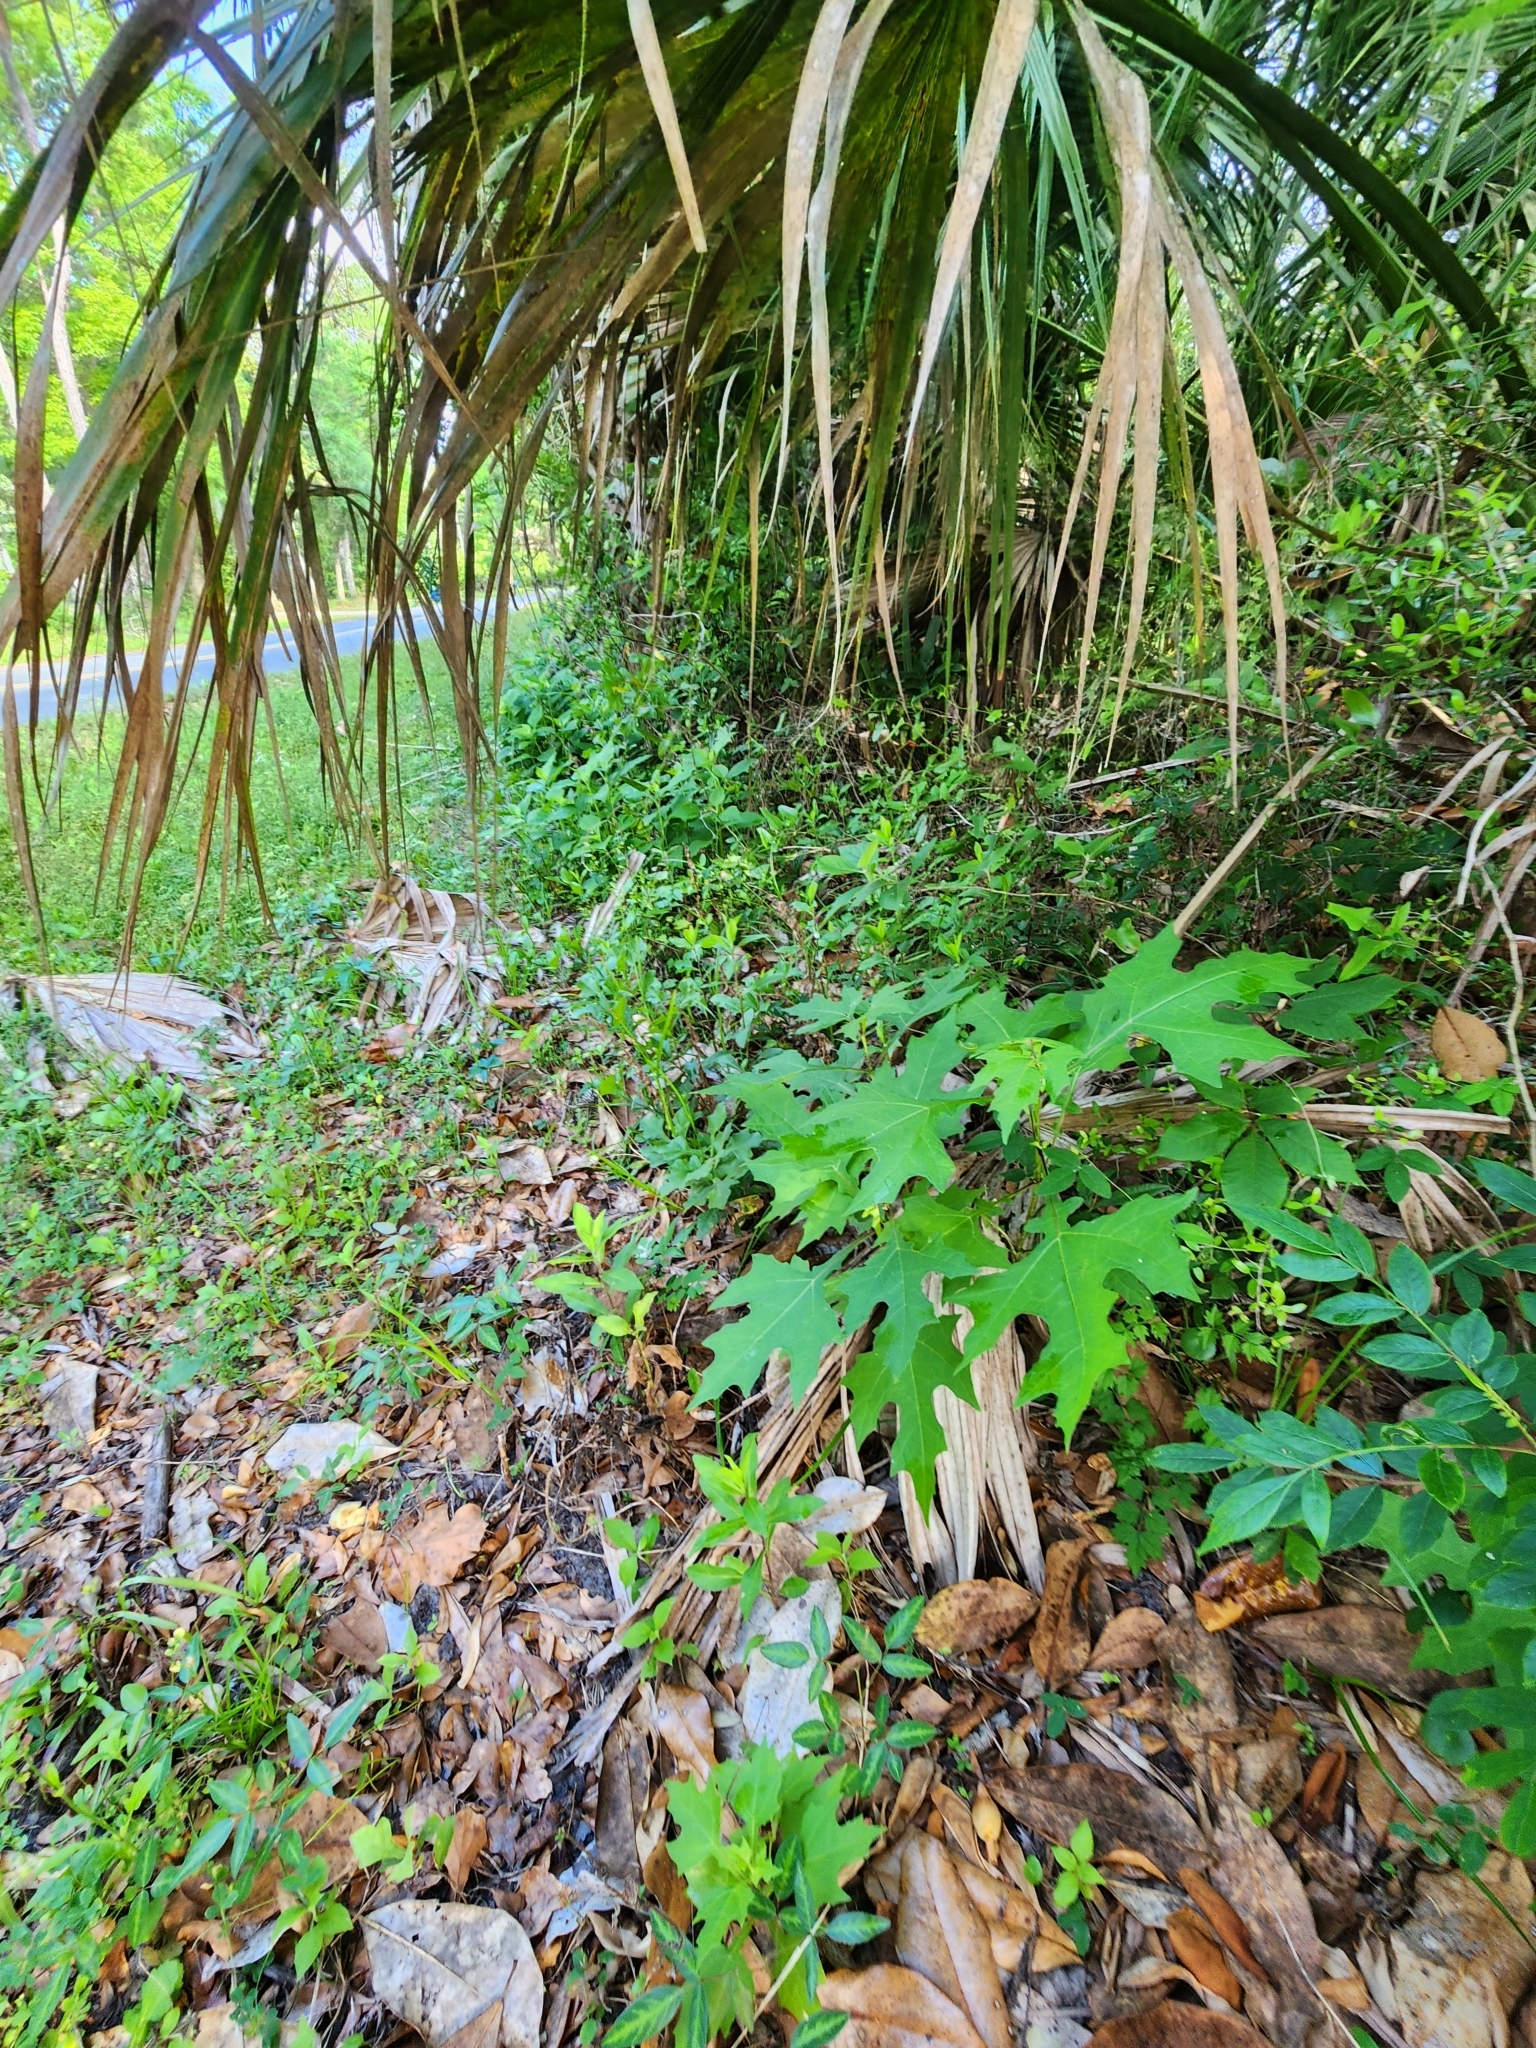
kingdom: Plantae
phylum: Tracheophyta
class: Magnoliopsida
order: Asterales
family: Asteraceae
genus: Smallanthus
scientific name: Smallanthus uvedalia
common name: Bear's-foot
